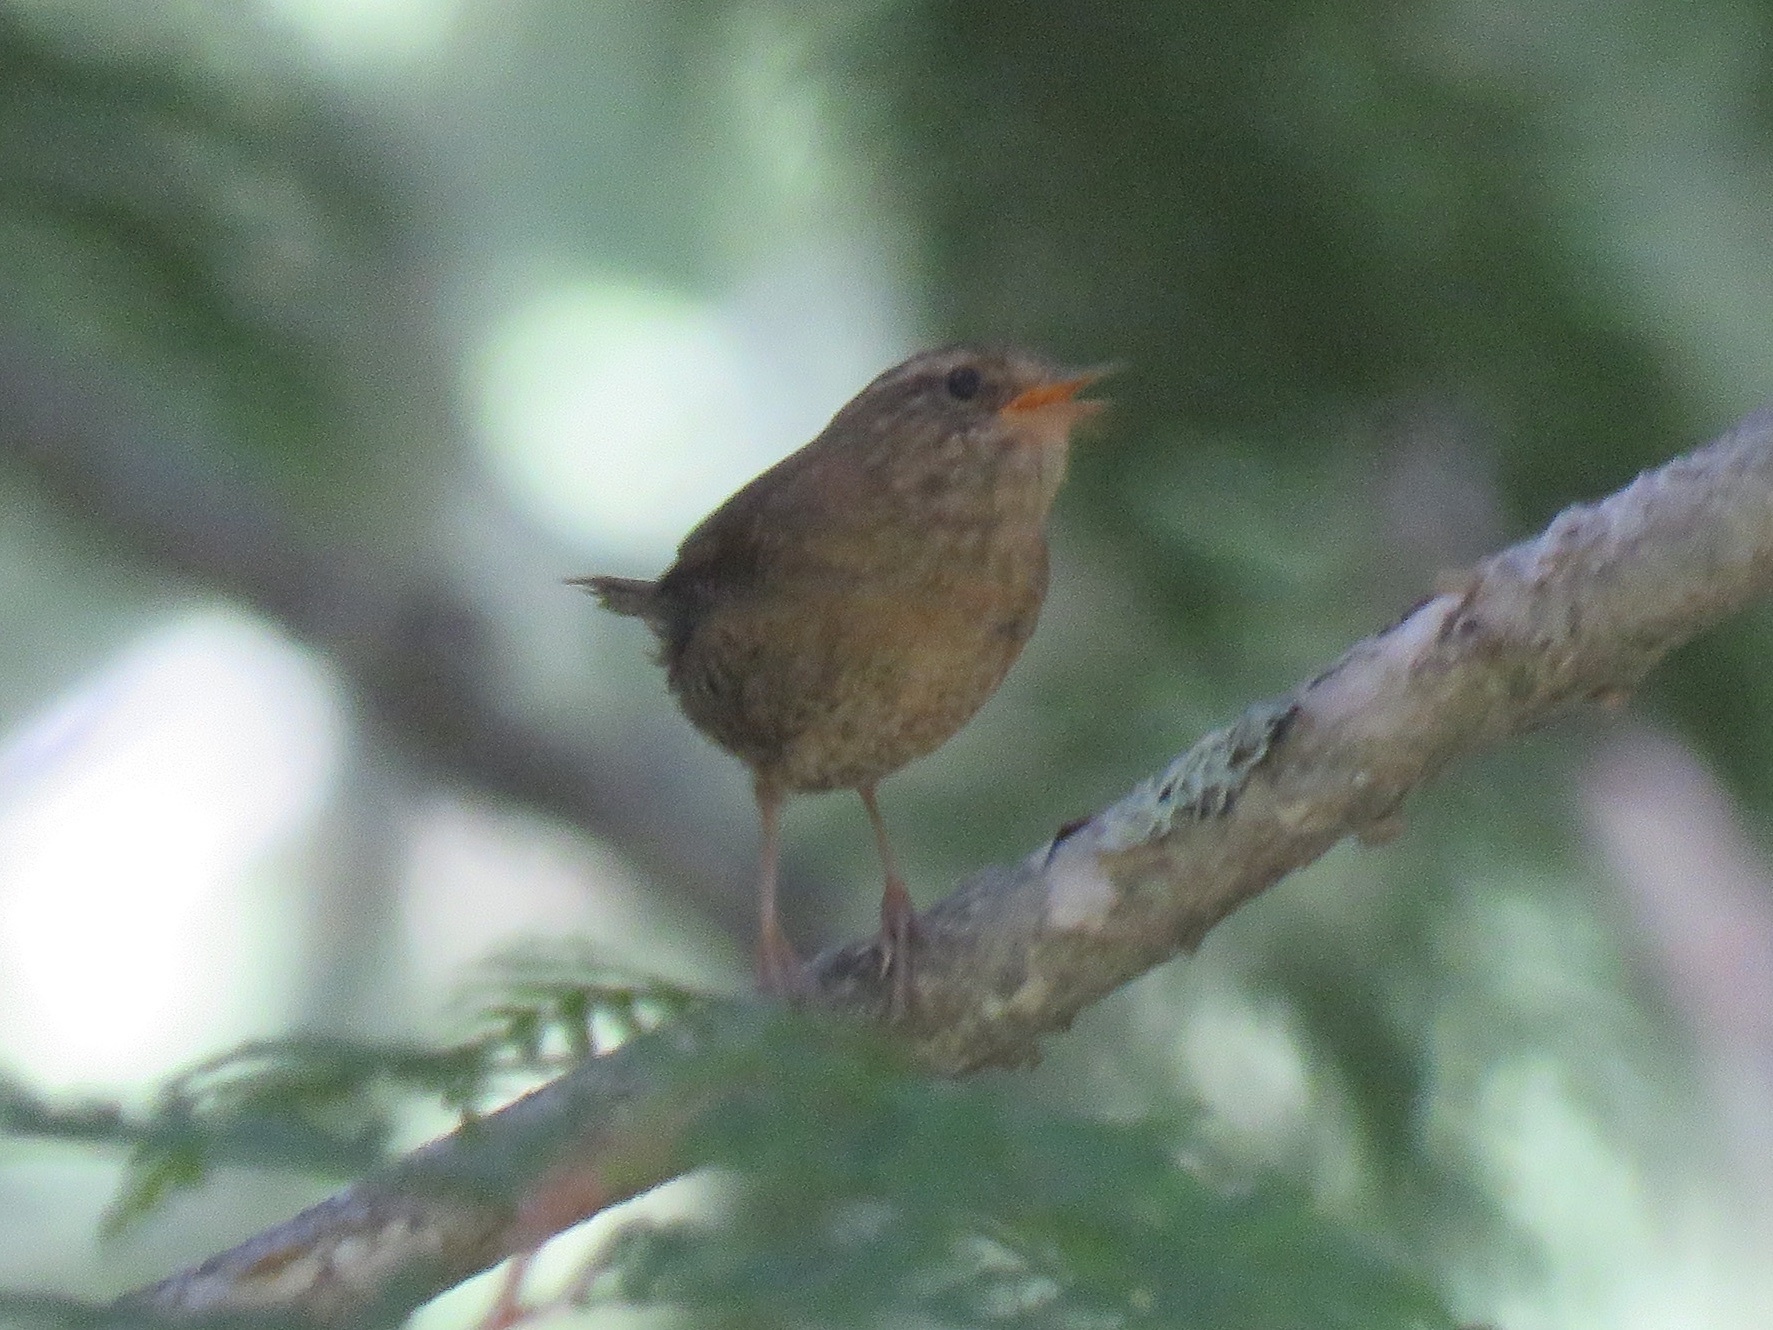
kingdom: Animalia
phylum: Chordata
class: Aves
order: Passeriformes
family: Troglodytidae
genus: Troglodytes
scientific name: Troglodytes pacificus
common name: Pacific wren
